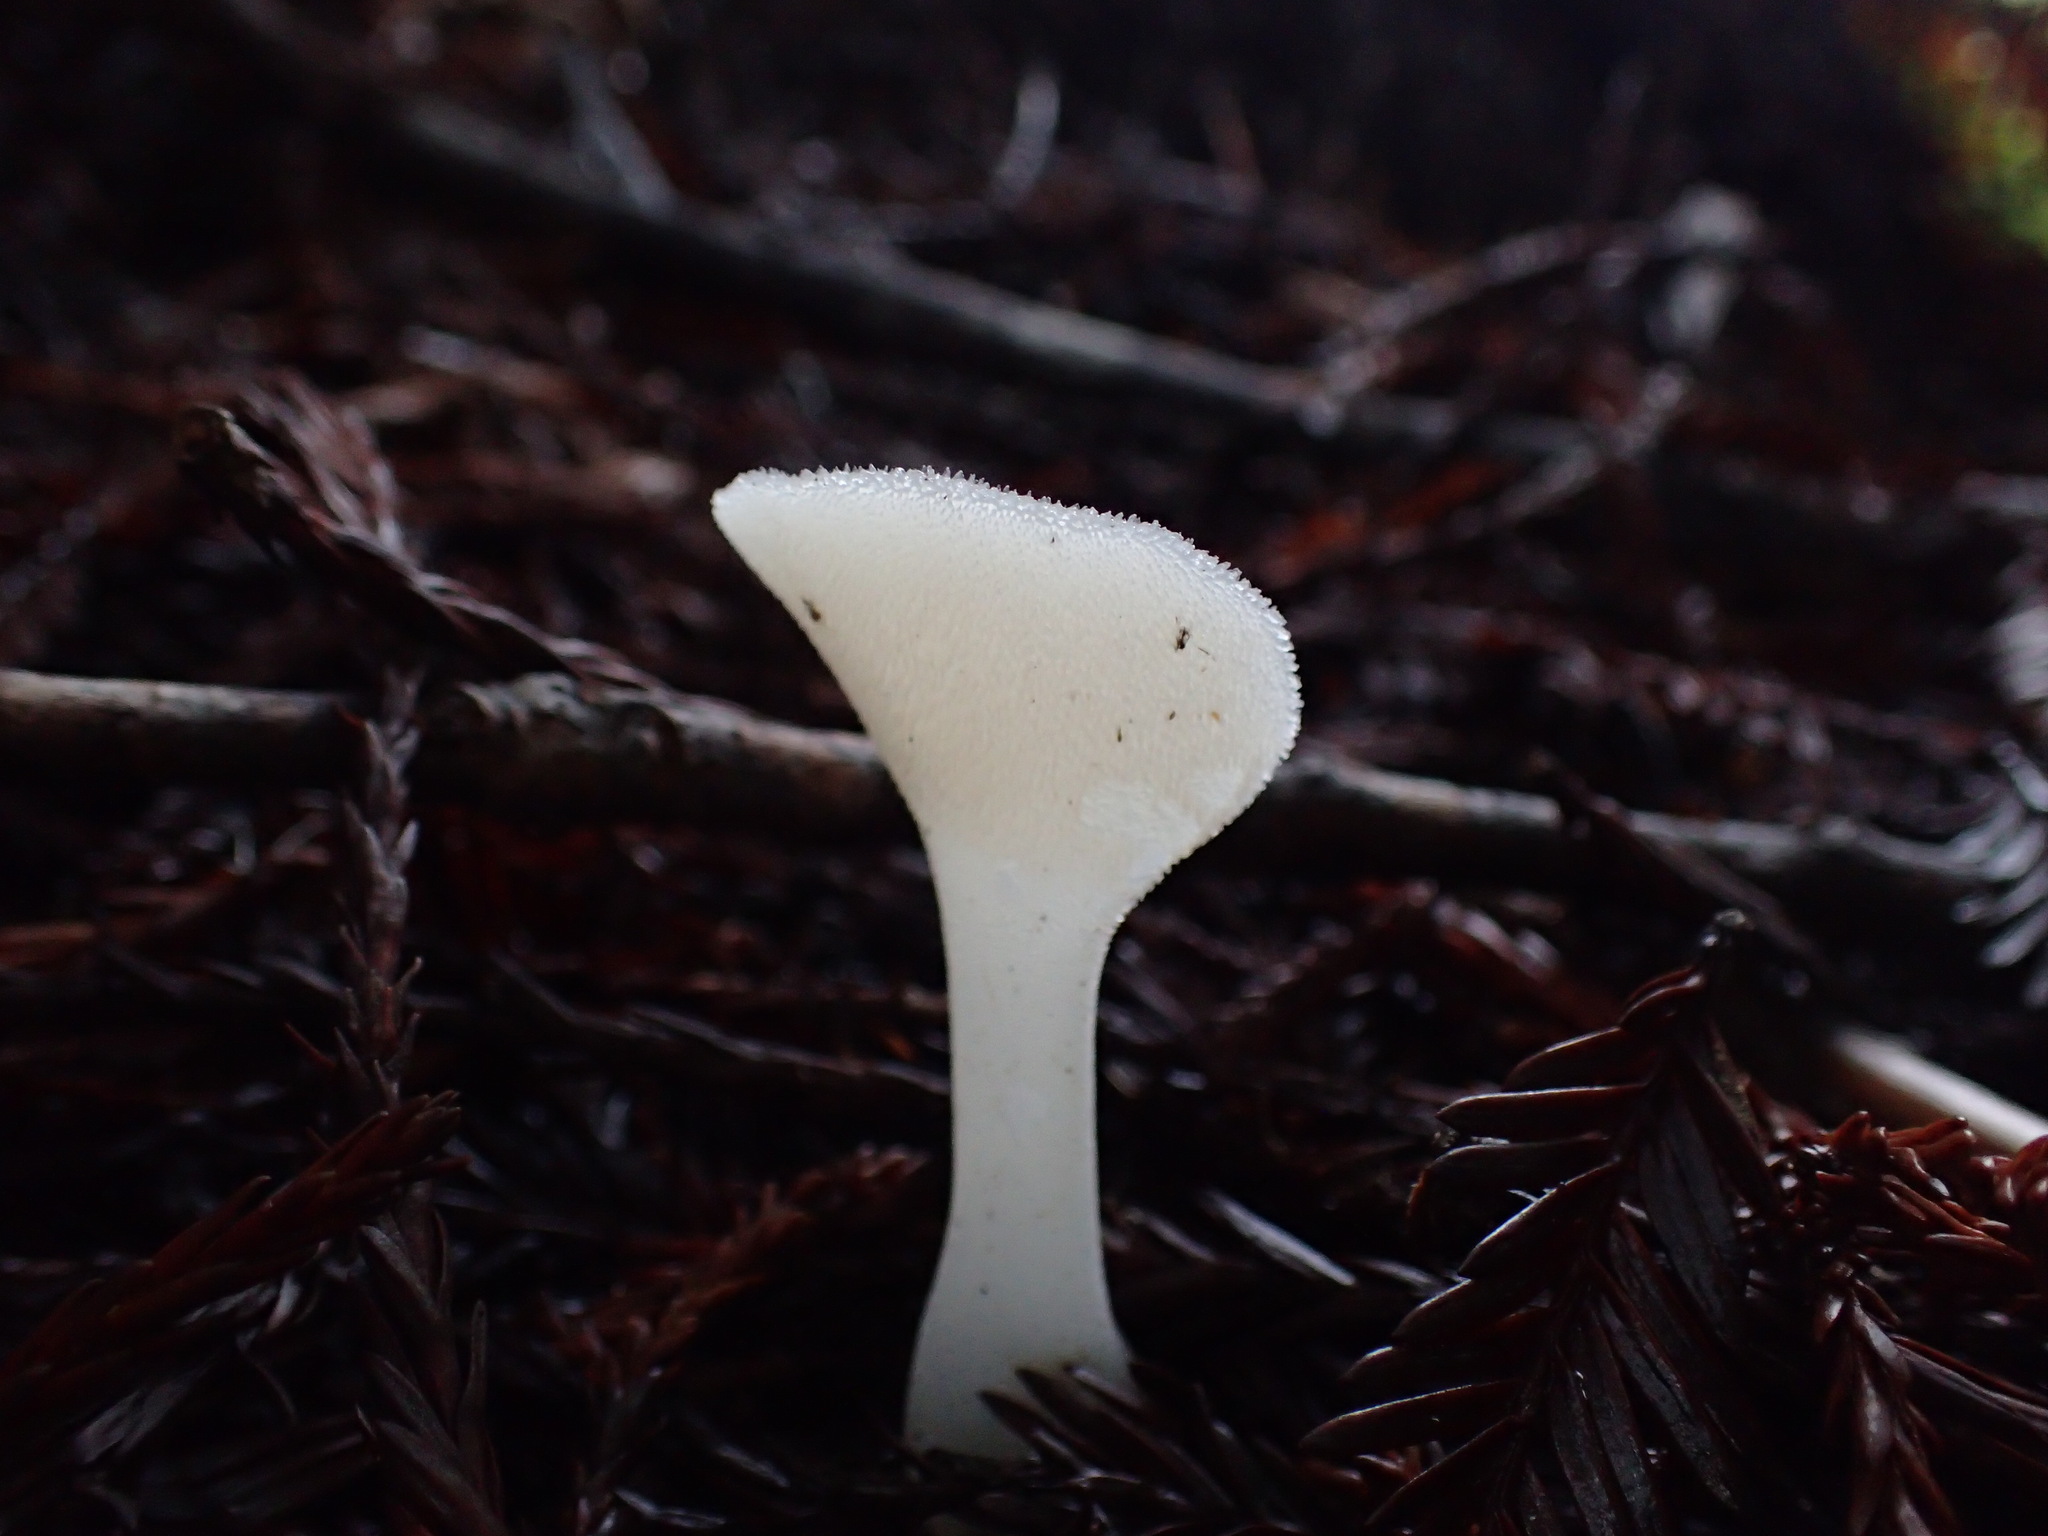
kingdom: Fungi
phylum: Basidiomycota
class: Agaricomycetes
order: Auriculariales
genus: Pseudohydnum
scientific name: Pseudohydnum gelatinosum
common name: Jelly tongue
